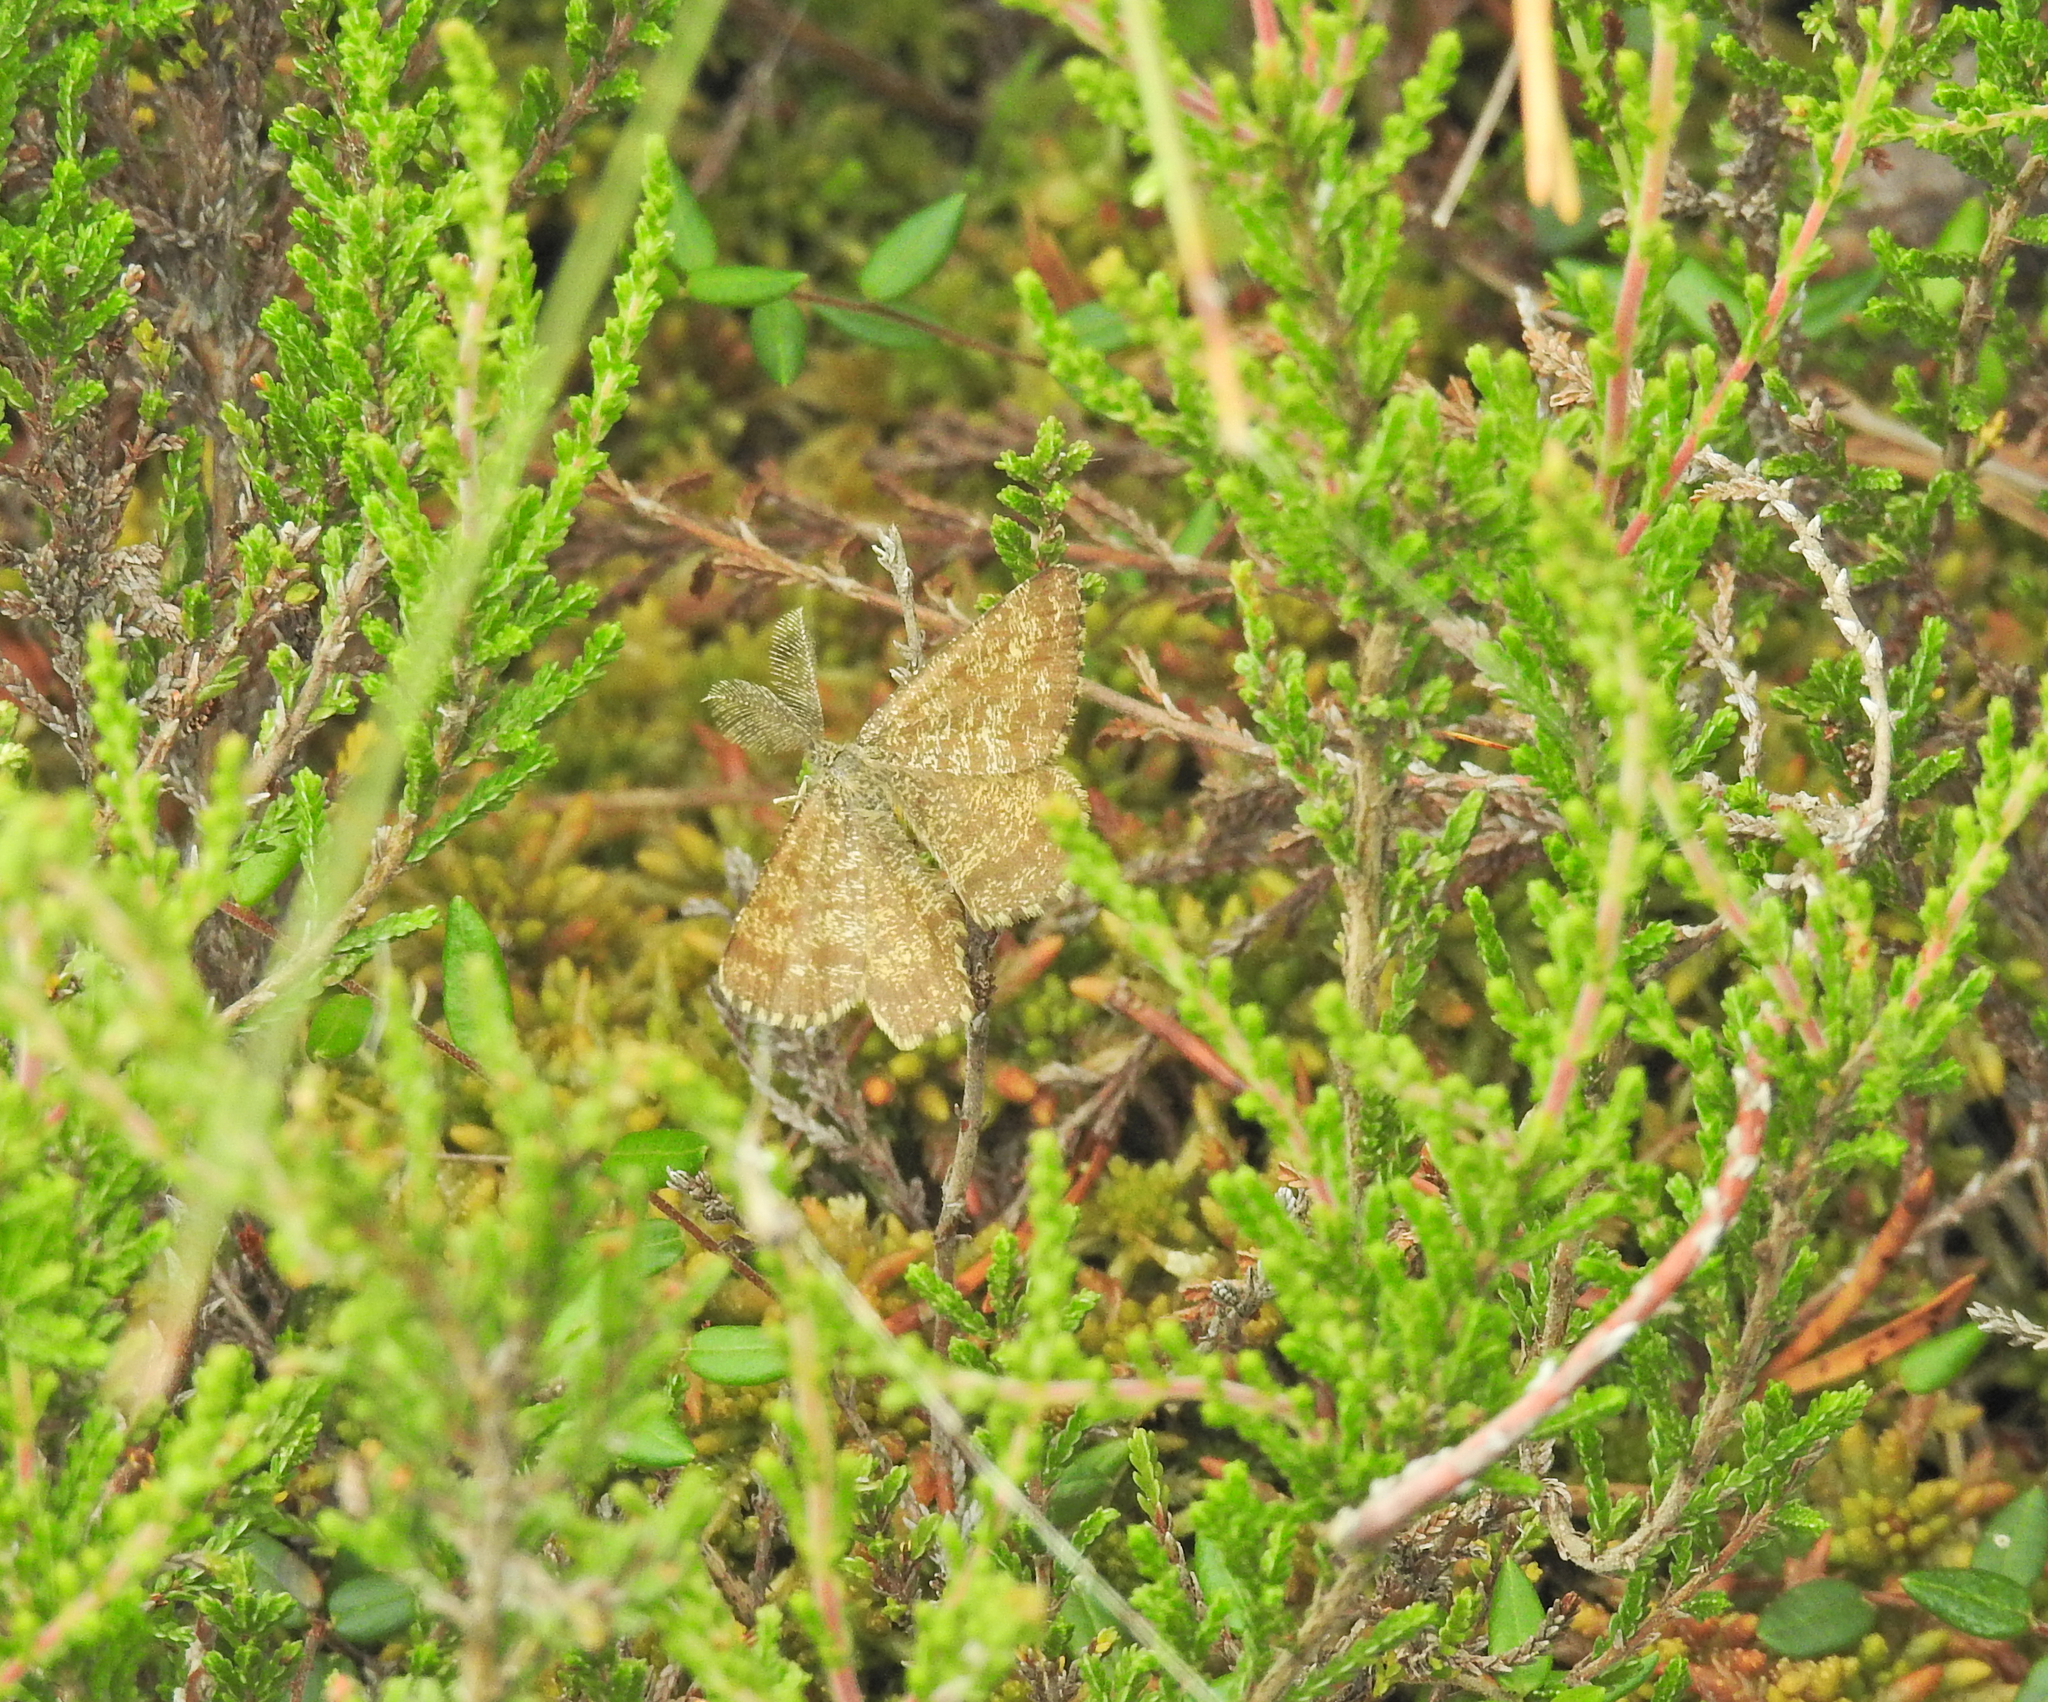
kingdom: Animalia
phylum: Arthropoda
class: Insecta
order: Lepidoptera
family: Geometridae
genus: Ematurga
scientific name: Ematurga atomaria
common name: Common heath
